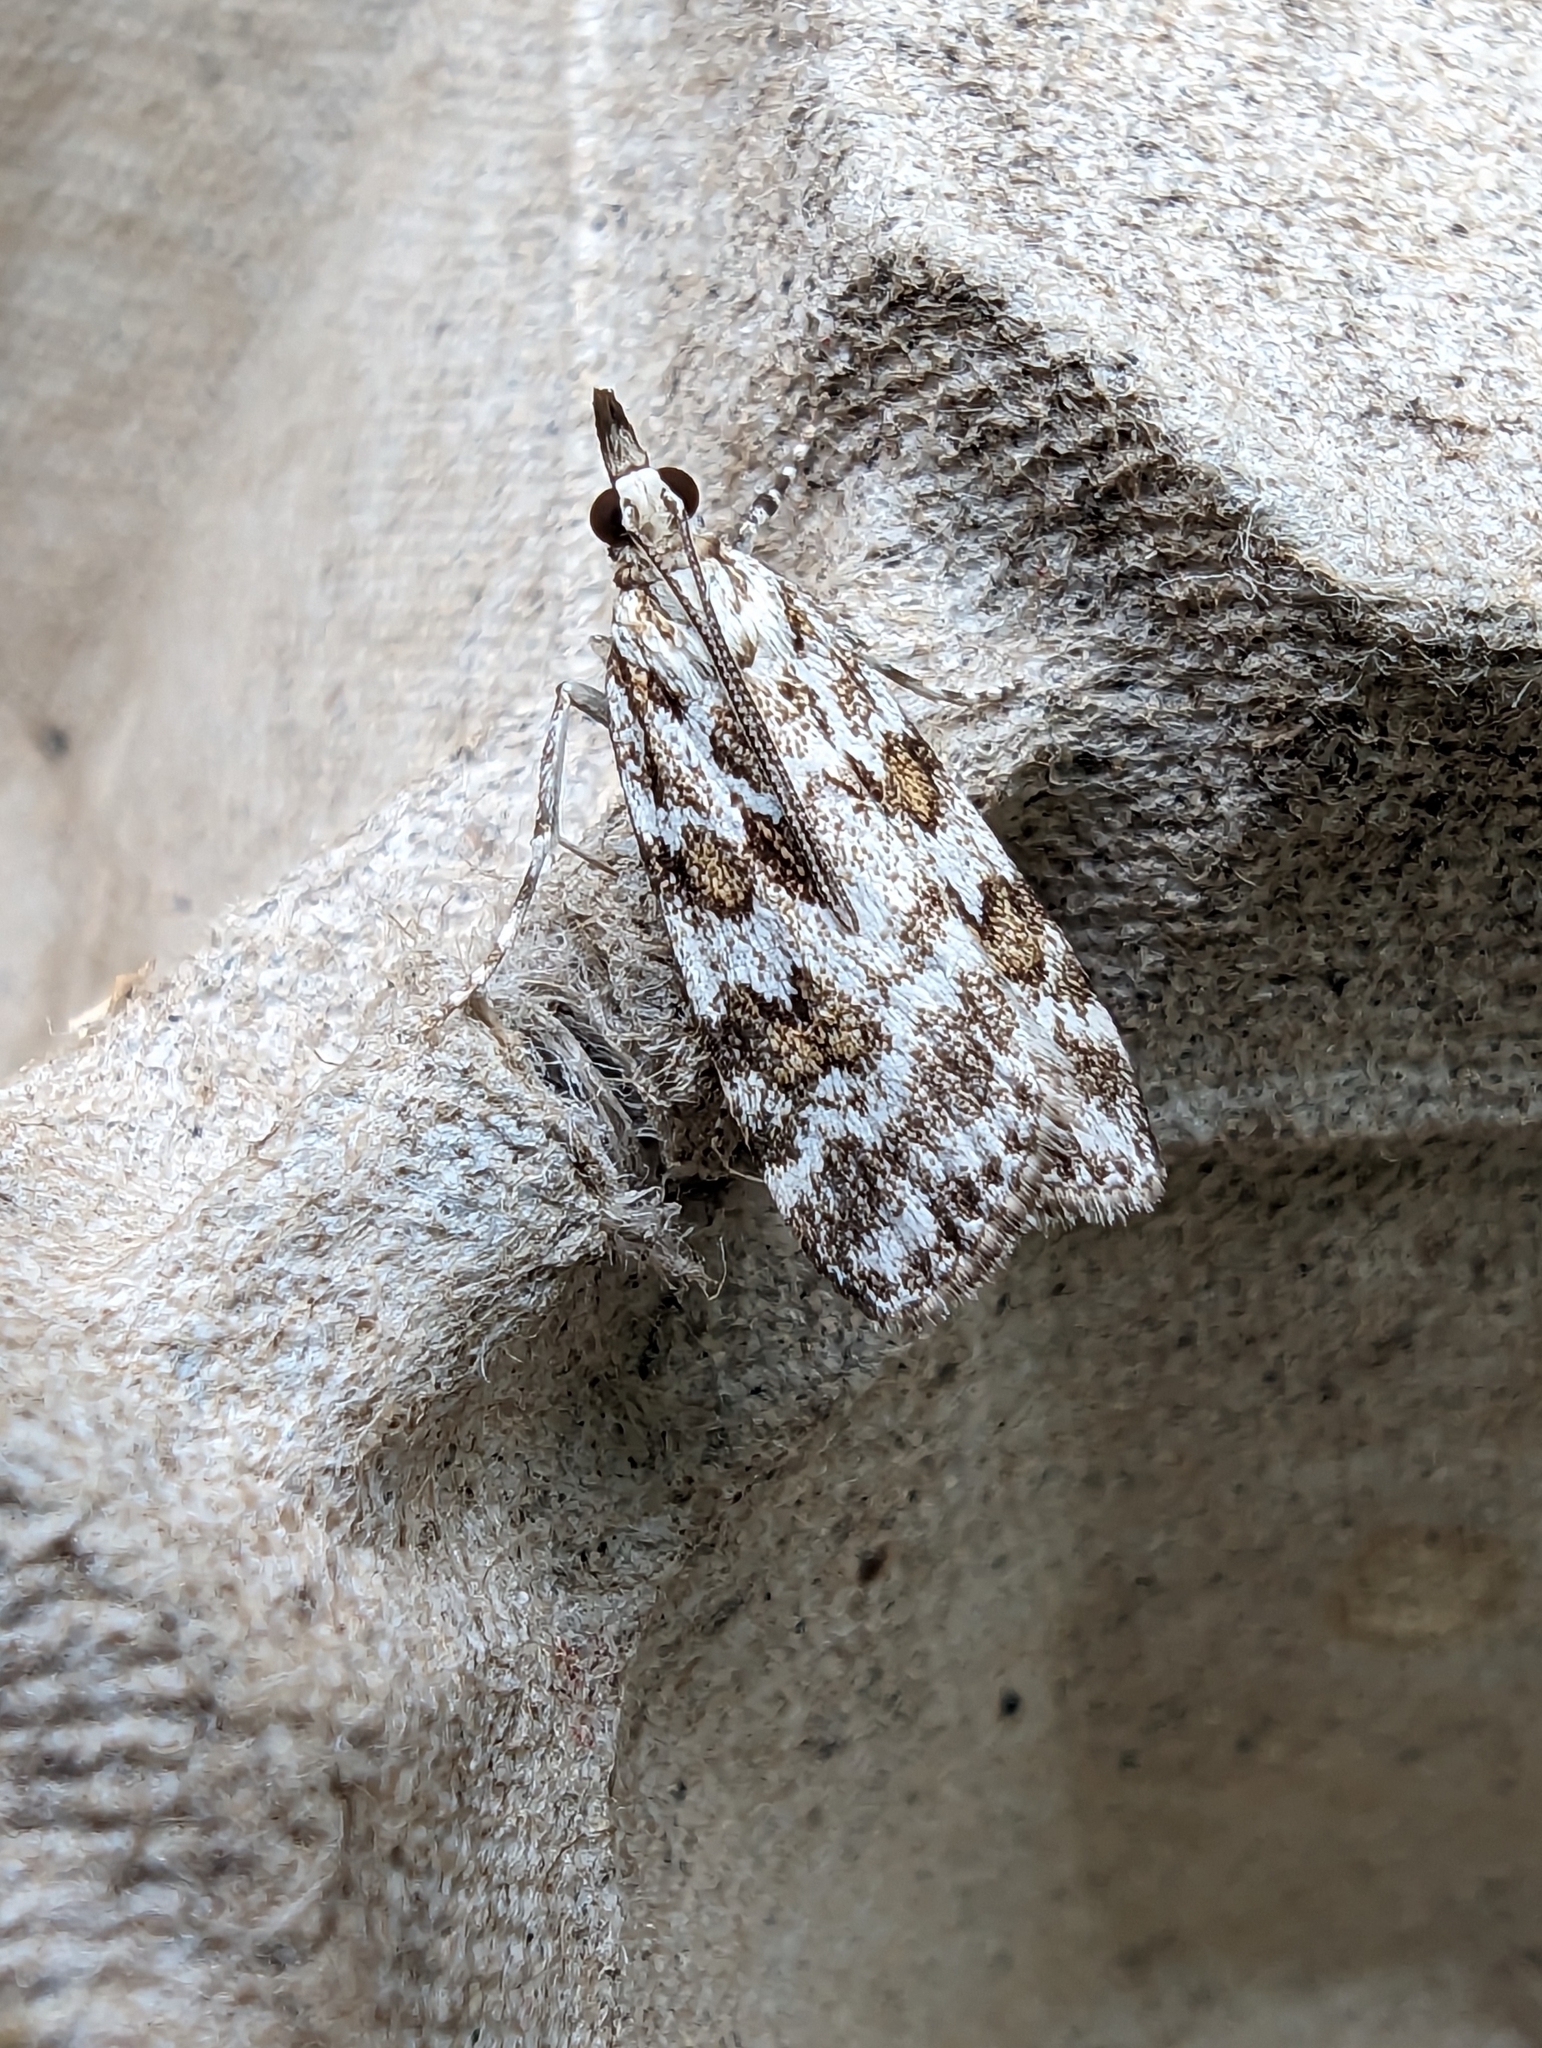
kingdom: Animalia
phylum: Arthropoda
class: Insecta
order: Lepidoptera
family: Crambidae
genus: Scoparia
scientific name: Scoparia pyralella
